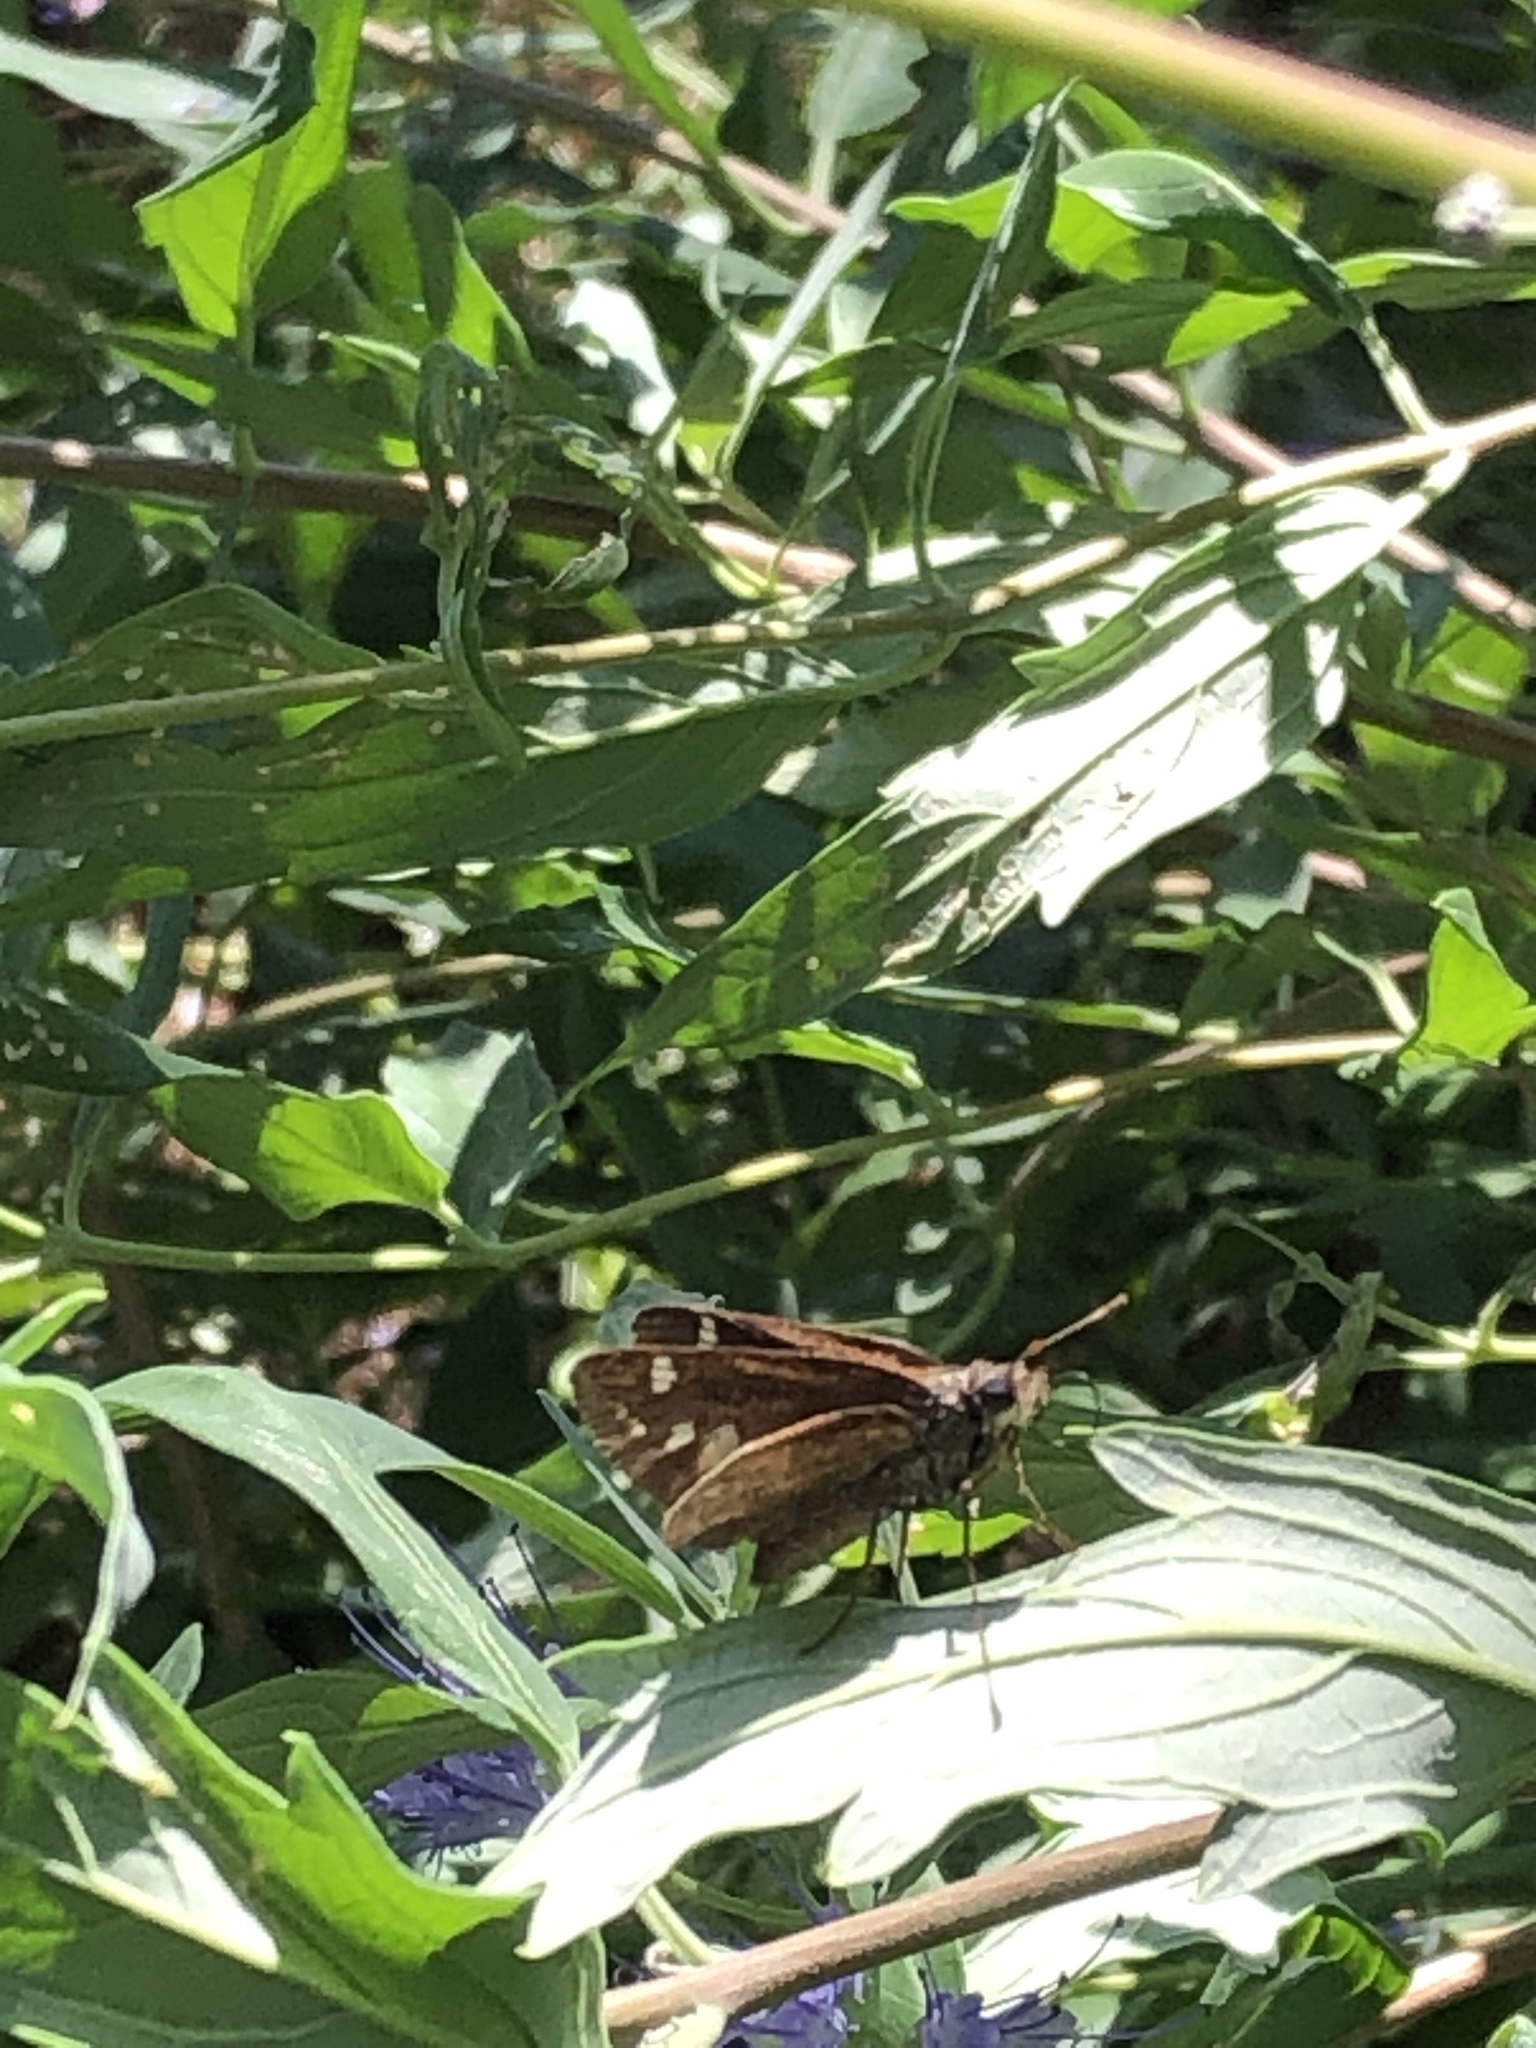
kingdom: Animalia
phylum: Arthropoda
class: Insecta
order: Lepidoptera
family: Hesperiidae
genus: Lon
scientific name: Lon zabulon
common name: Zabulon skipper
